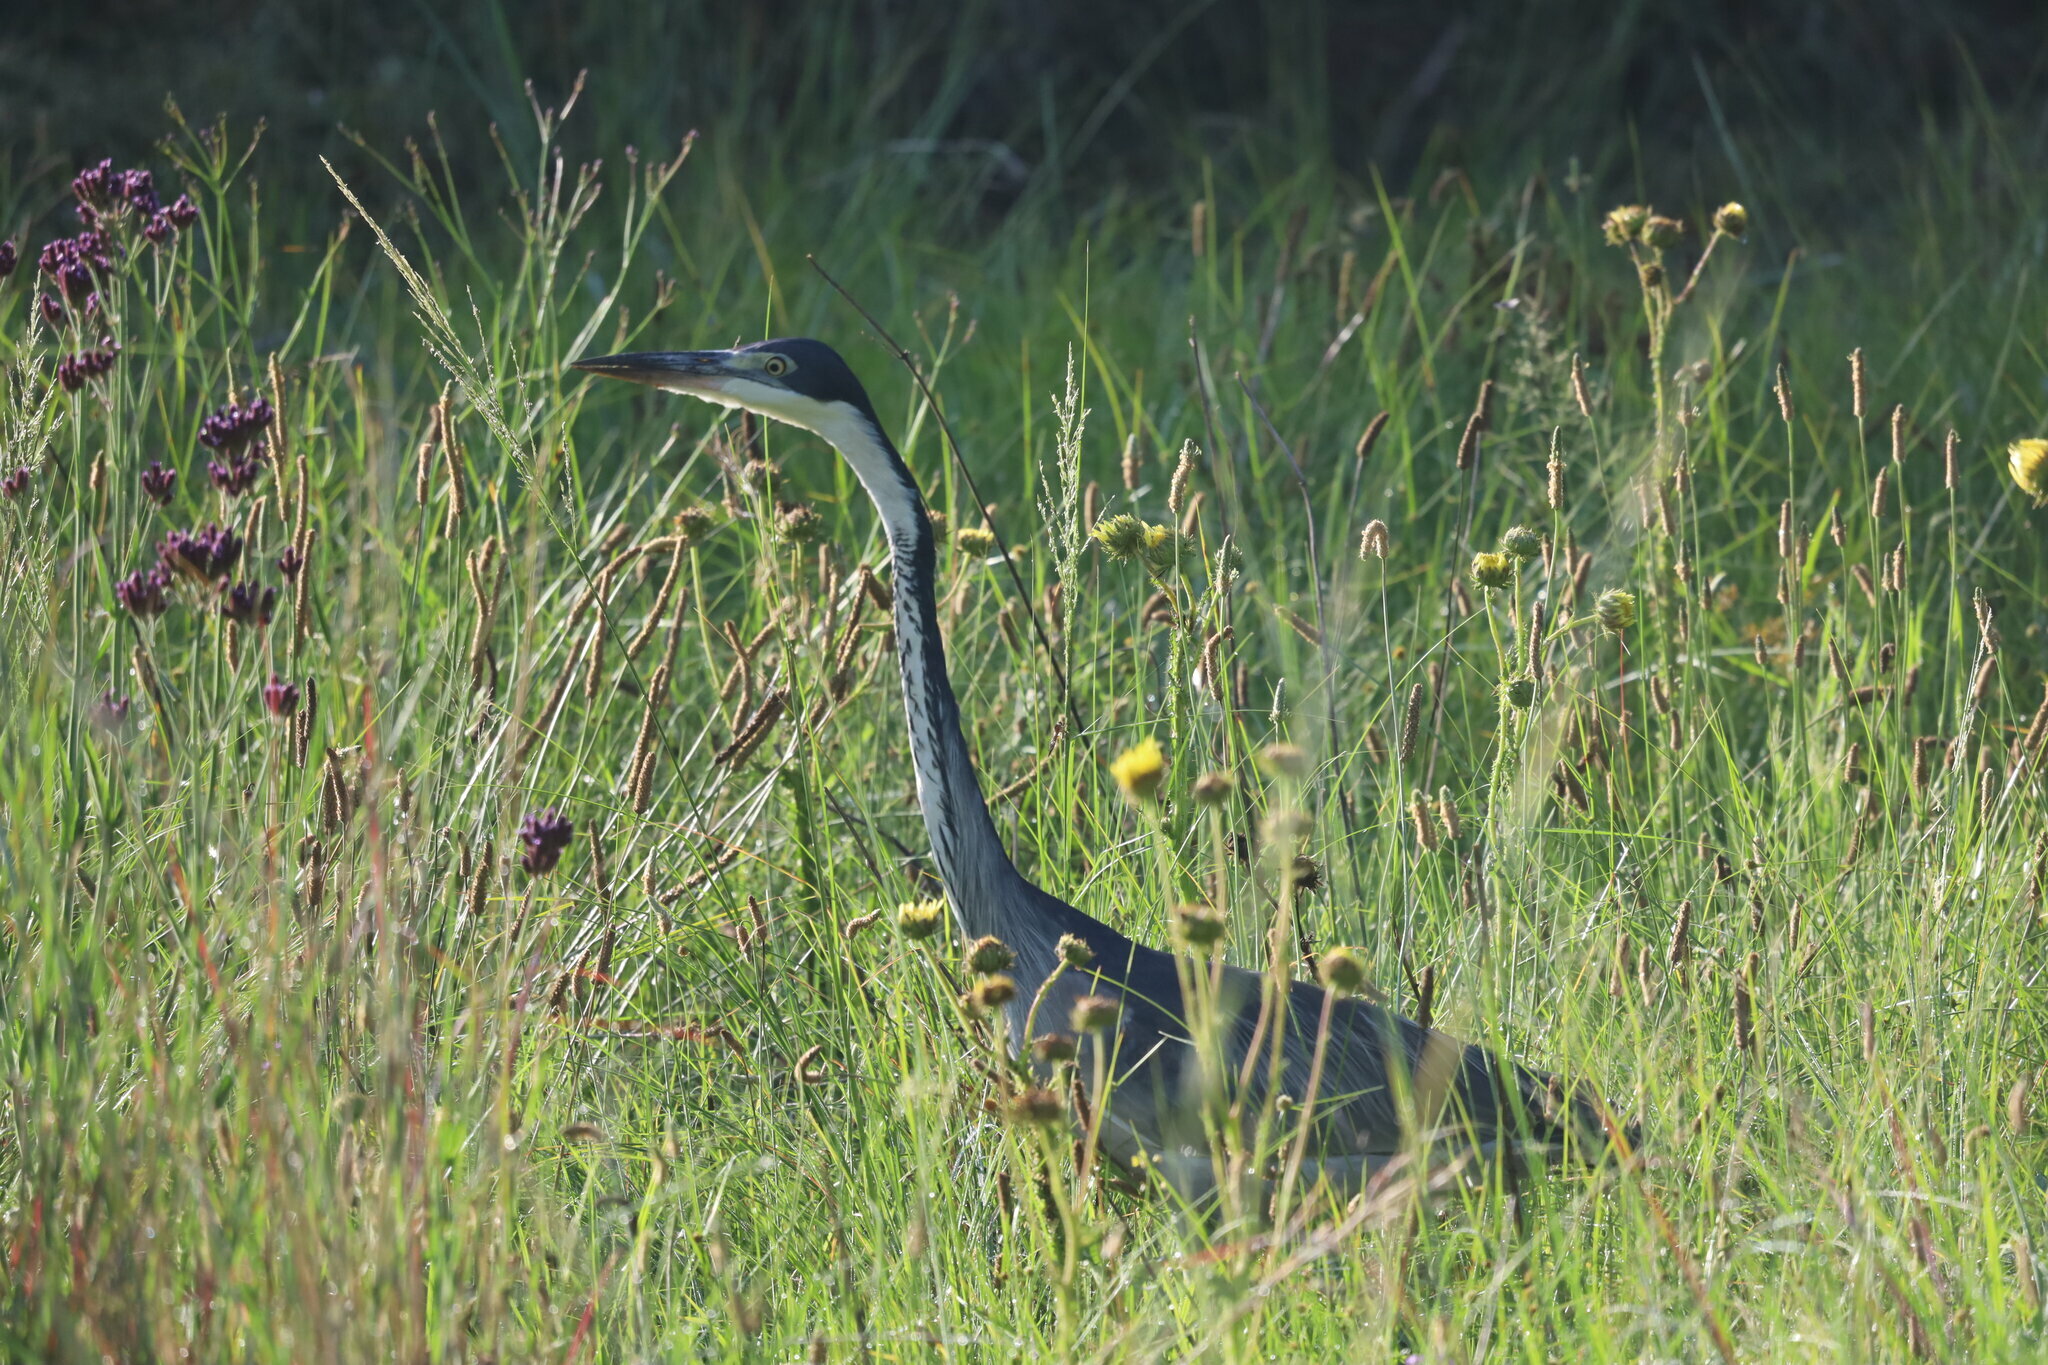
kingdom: Animalia
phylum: Chordata
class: Aves
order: Pelecaniformes
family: Ardeidae
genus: Ardea
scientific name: Ardea melanocephala
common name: Black-headed heron
